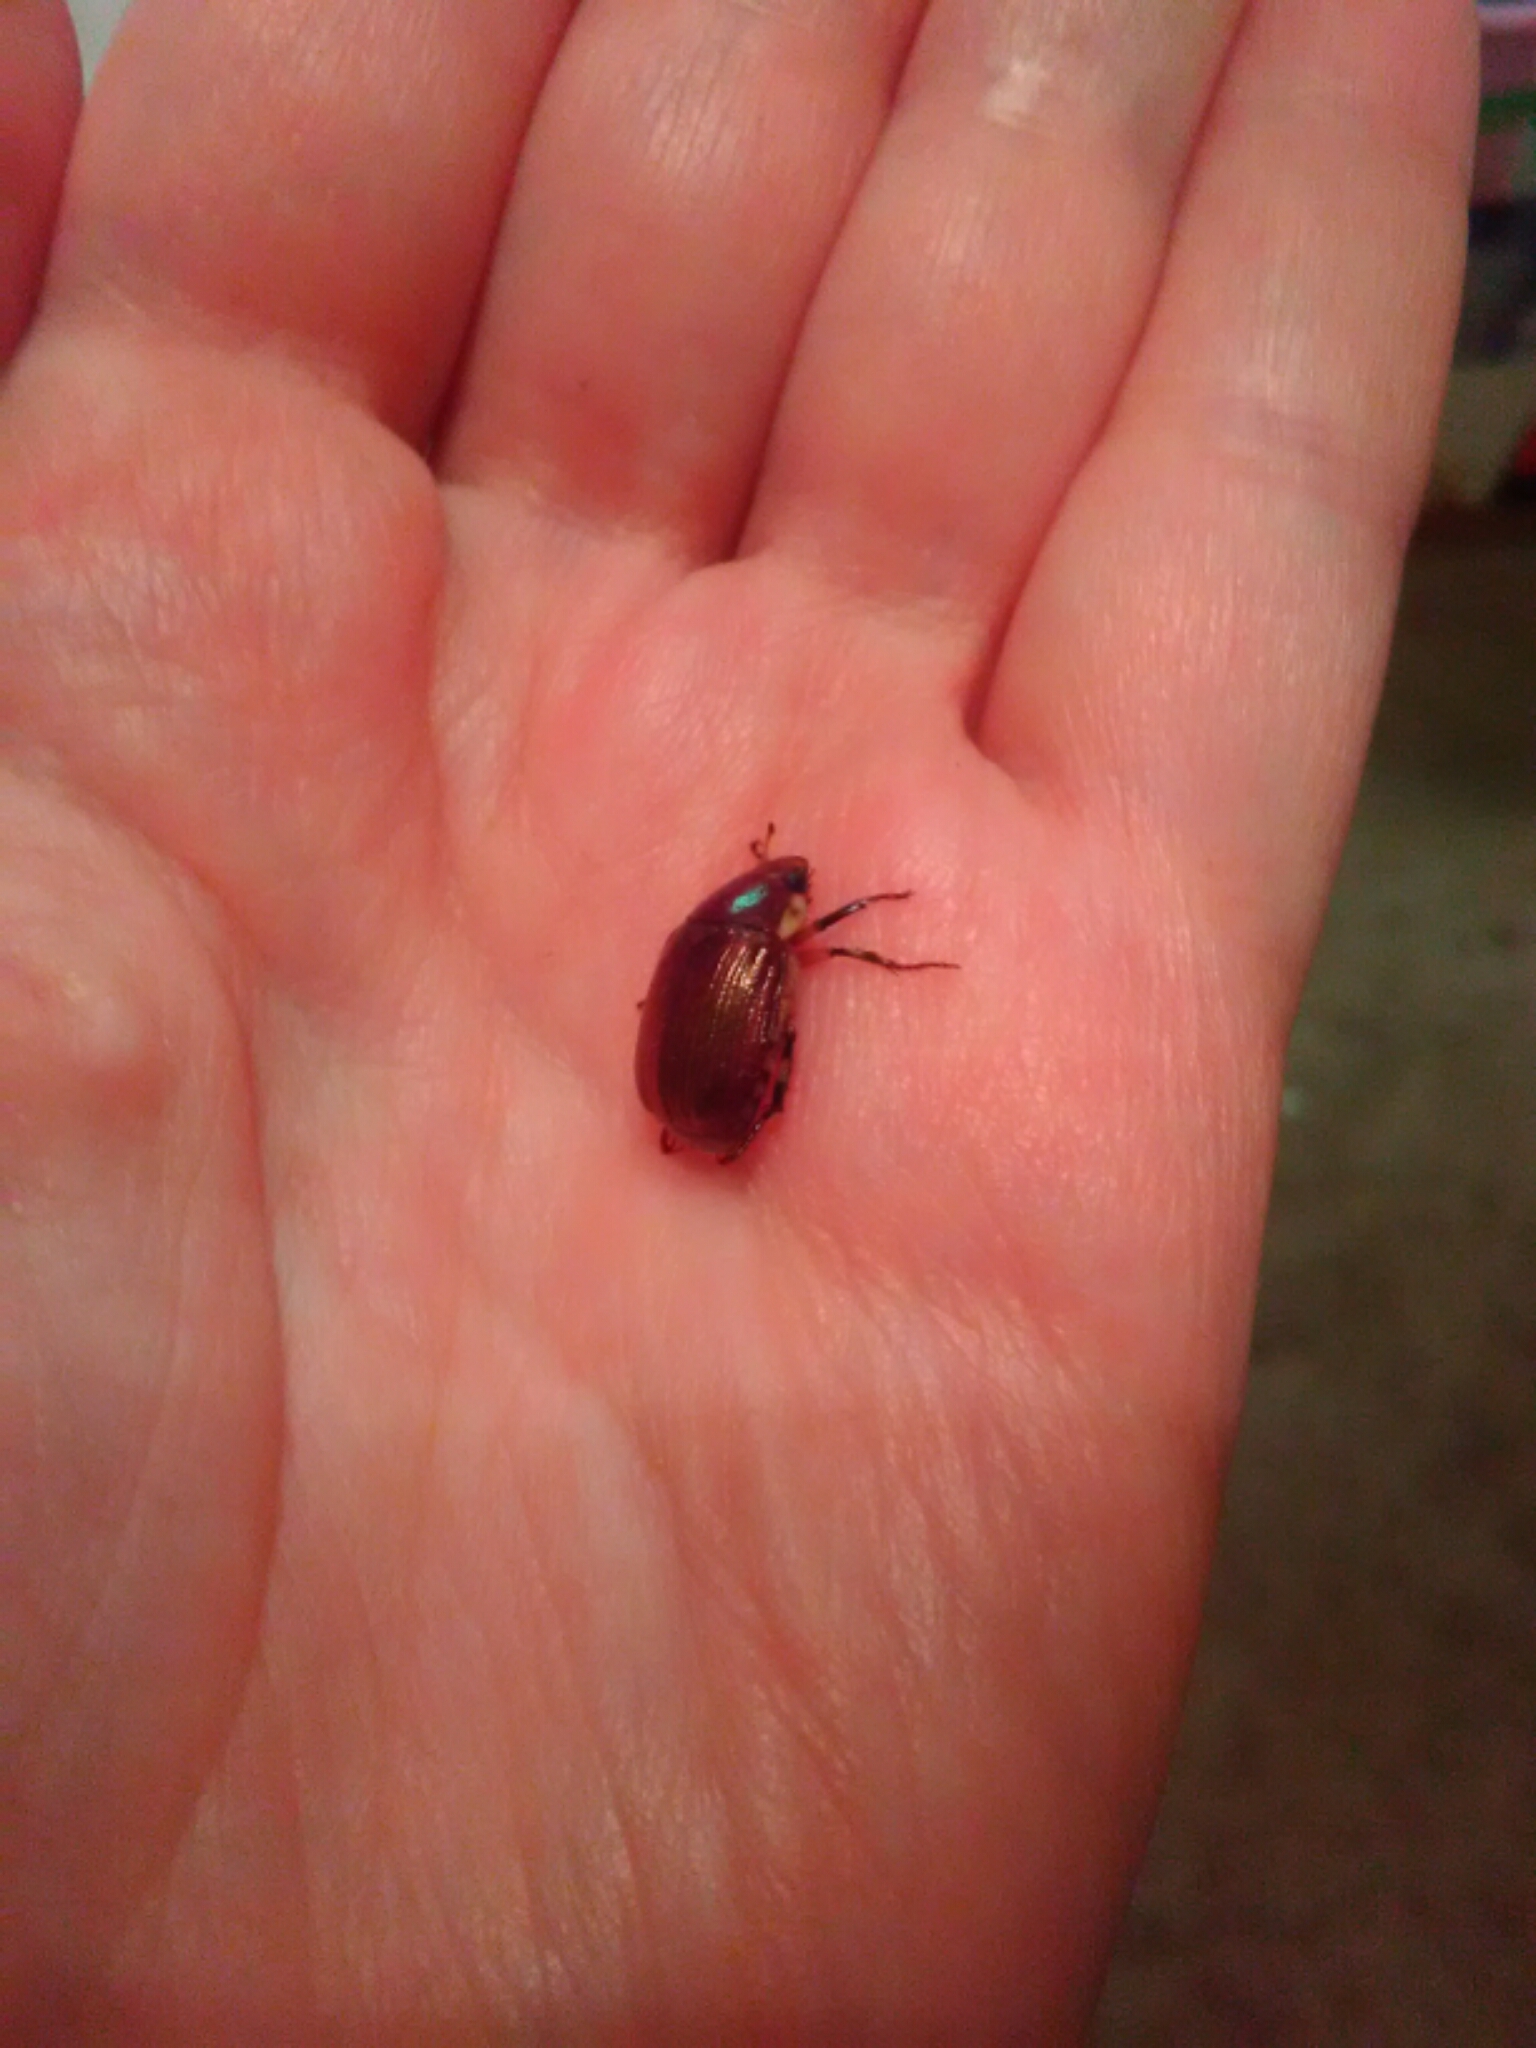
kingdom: Animalia
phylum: Arthropoda
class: Insecta
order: Coleoptera
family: Scarabaeidae
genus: Callistethus
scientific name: Callistethus marginatus
